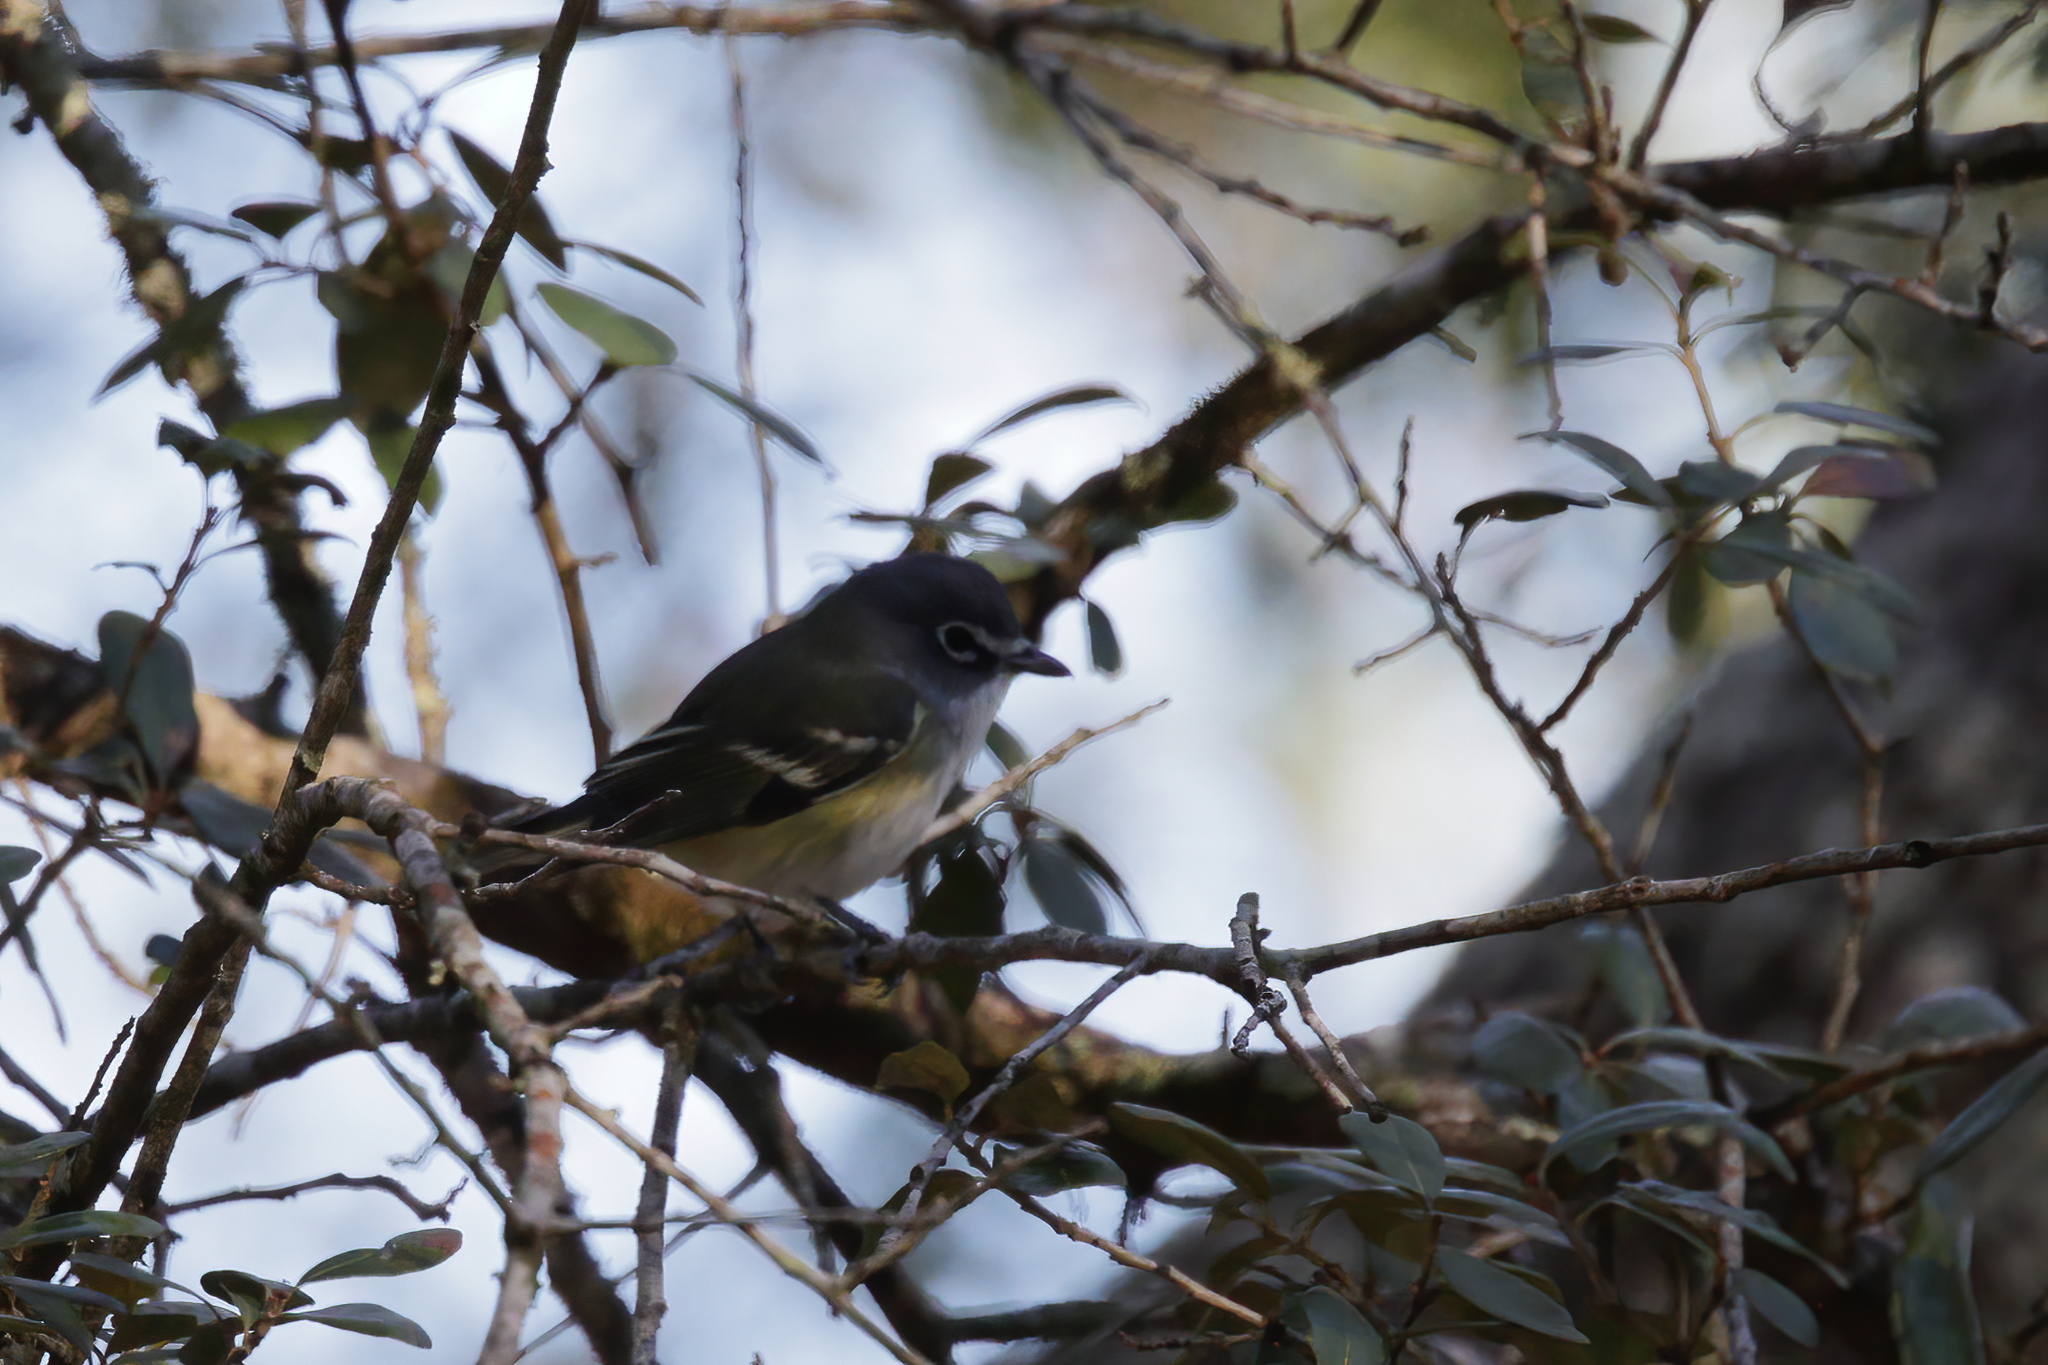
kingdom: Animalia
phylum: Chordata
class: Aves
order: Passeriformes
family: Vireonidae
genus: Vireo
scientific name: Vireo solitarius
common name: Blue-headed vireo
